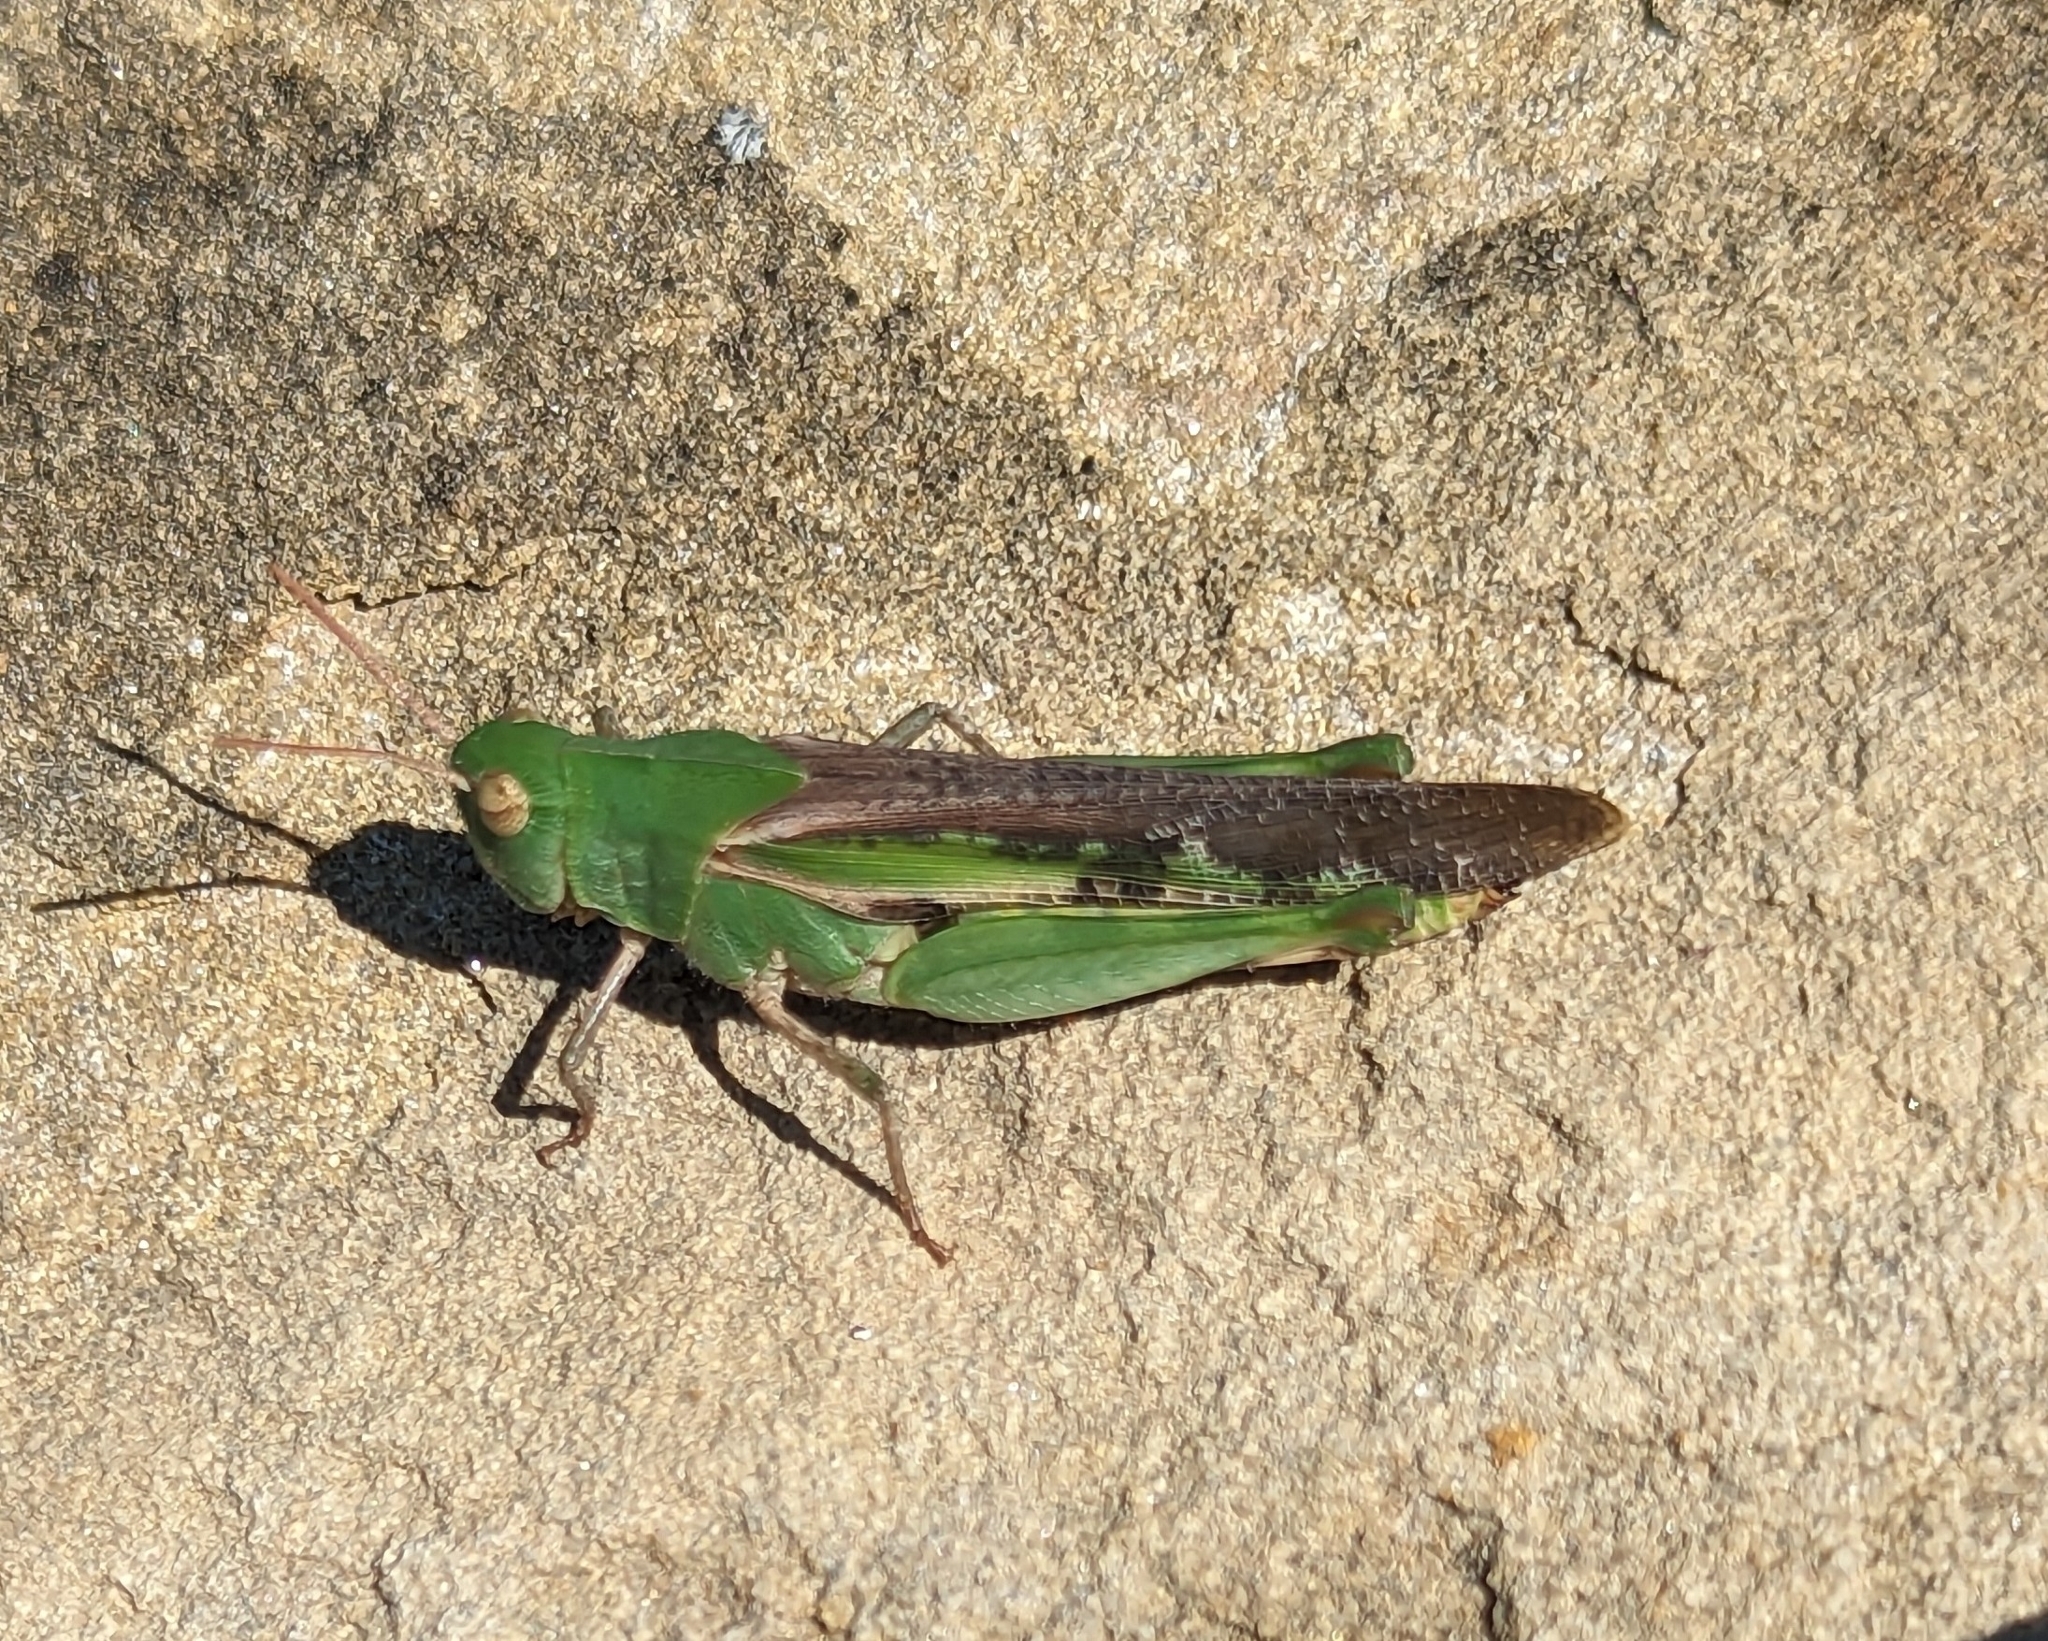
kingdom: Animalia
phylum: Arthropoda
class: Insecta
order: Orthoptera
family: Acrididae
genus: Chortophaga
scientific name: Chortophaga viridifasciata
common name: Green-striped grasshopper
